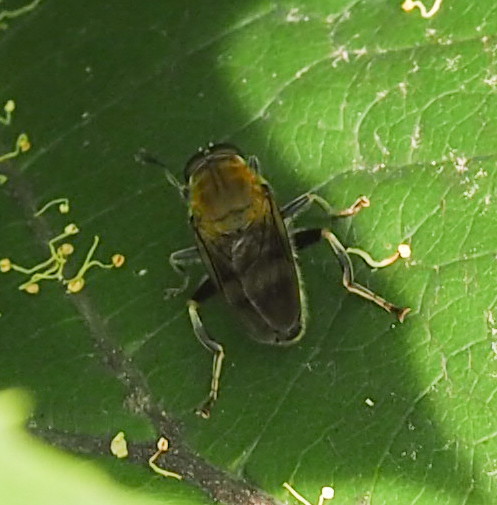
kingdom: Animalia
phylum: Arthropoda
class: Insecta
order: Diptera
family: Syrphidae
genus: Pterallastes
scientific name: Pterallastes thoracicus
